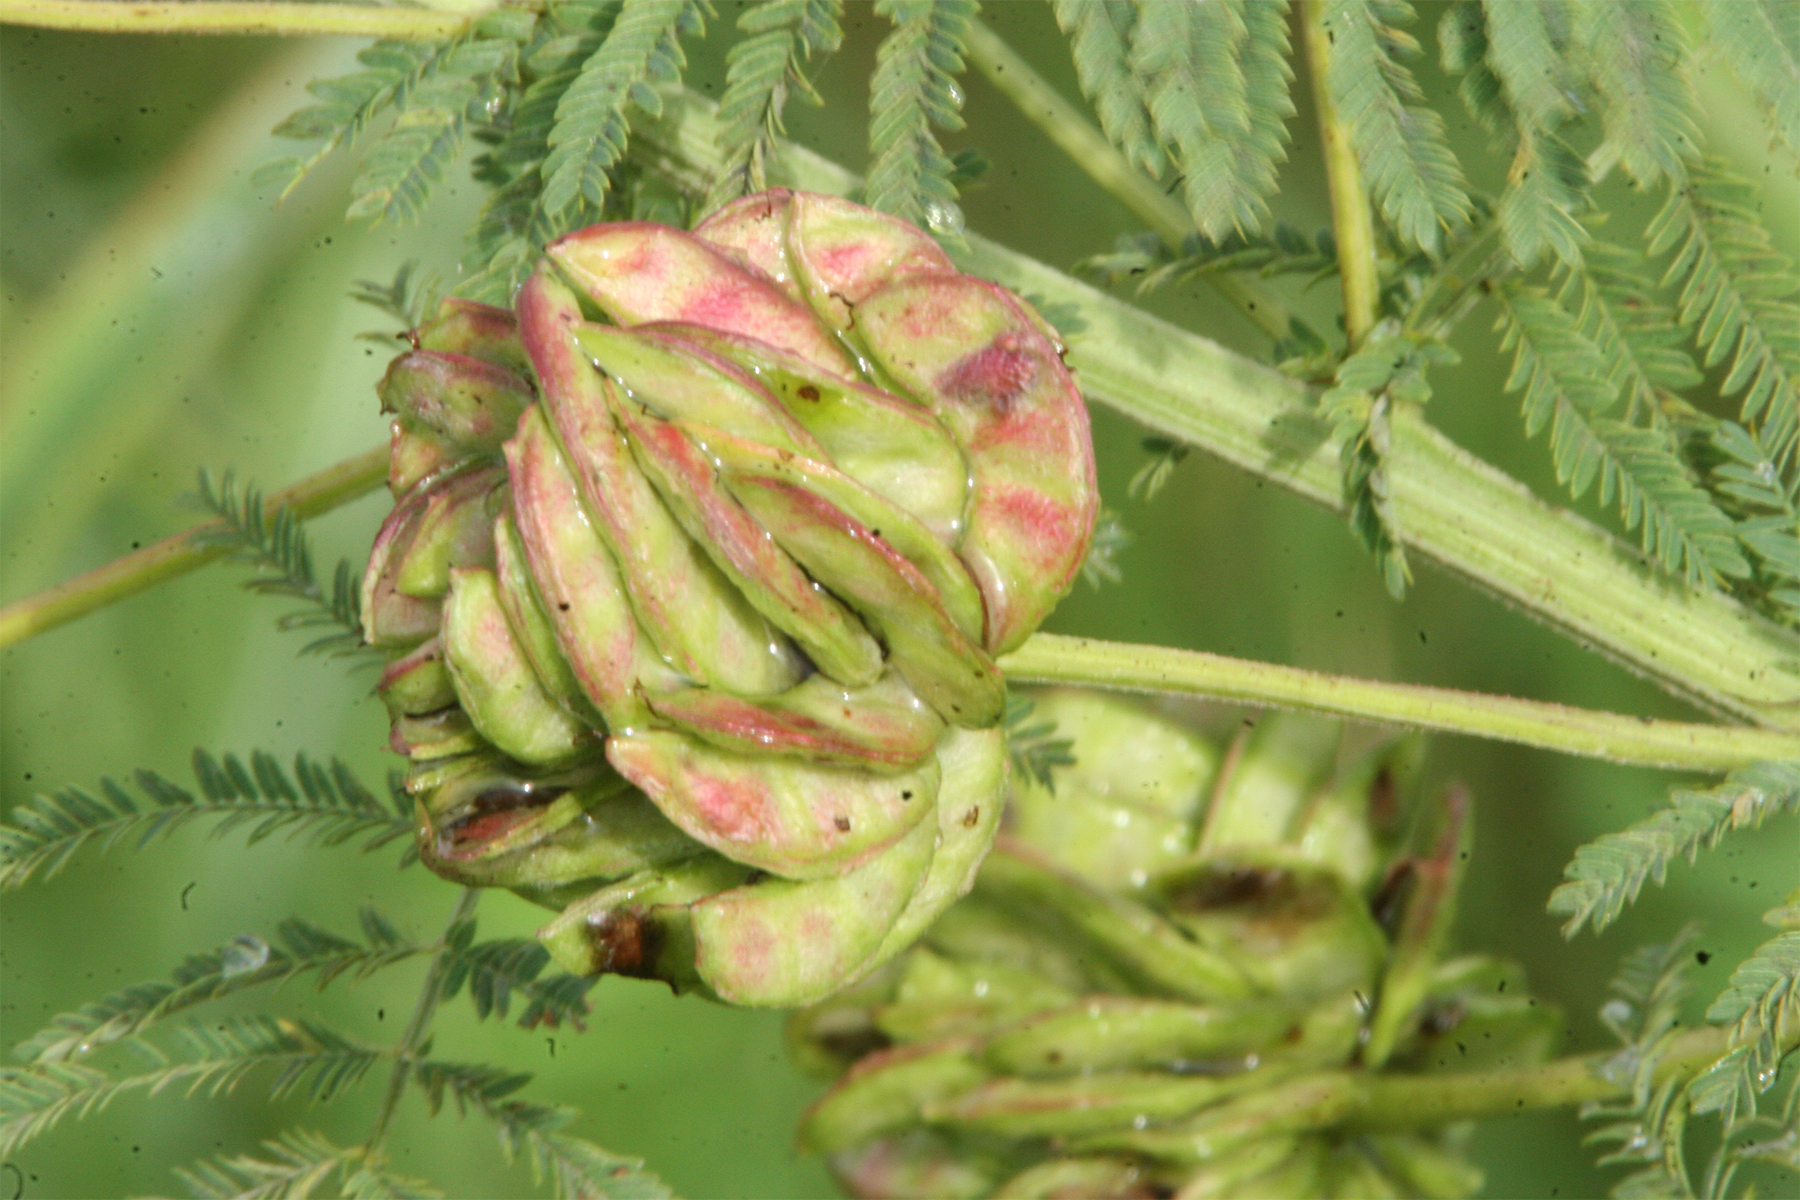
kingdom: Plantae
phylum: Tracheophyta
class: Magnoliopsida
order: Fabales
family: Fabaceae
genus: Desmanthus
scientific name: Desmanthus illinoensis
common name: Illinois bundle-flower
